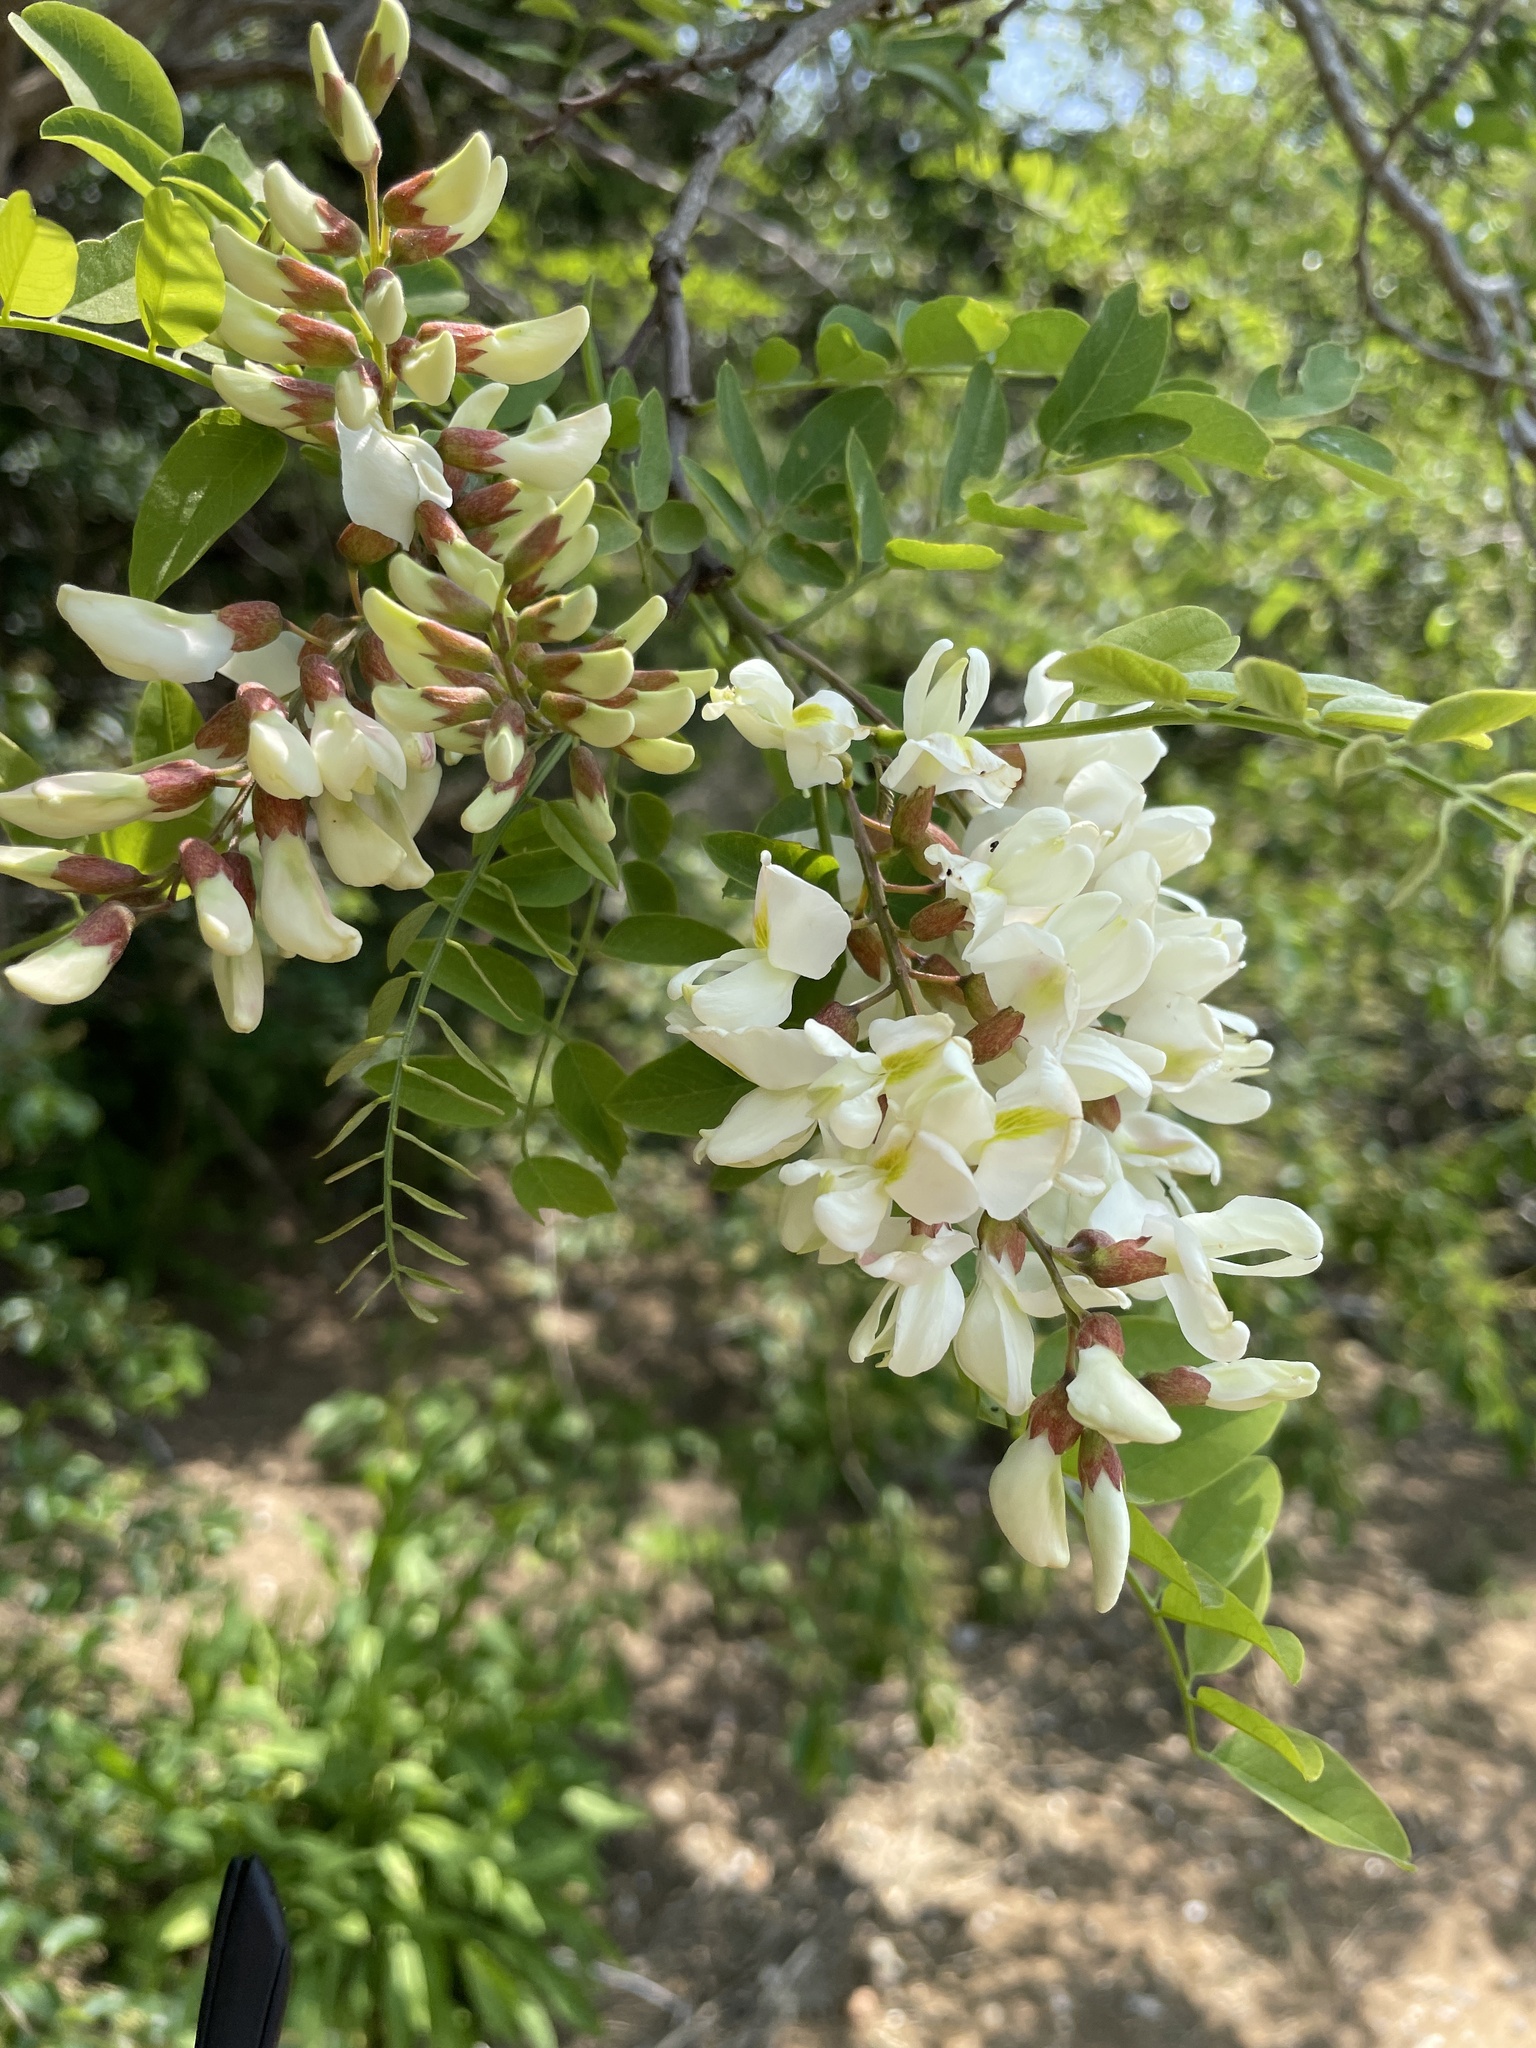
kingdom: Plantae
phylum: Tracheophyta
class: Magnoliopsida
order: Fabales
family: Fabaceae
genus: Robinia
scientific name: Robinia pseudoacacia
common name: Black locust
